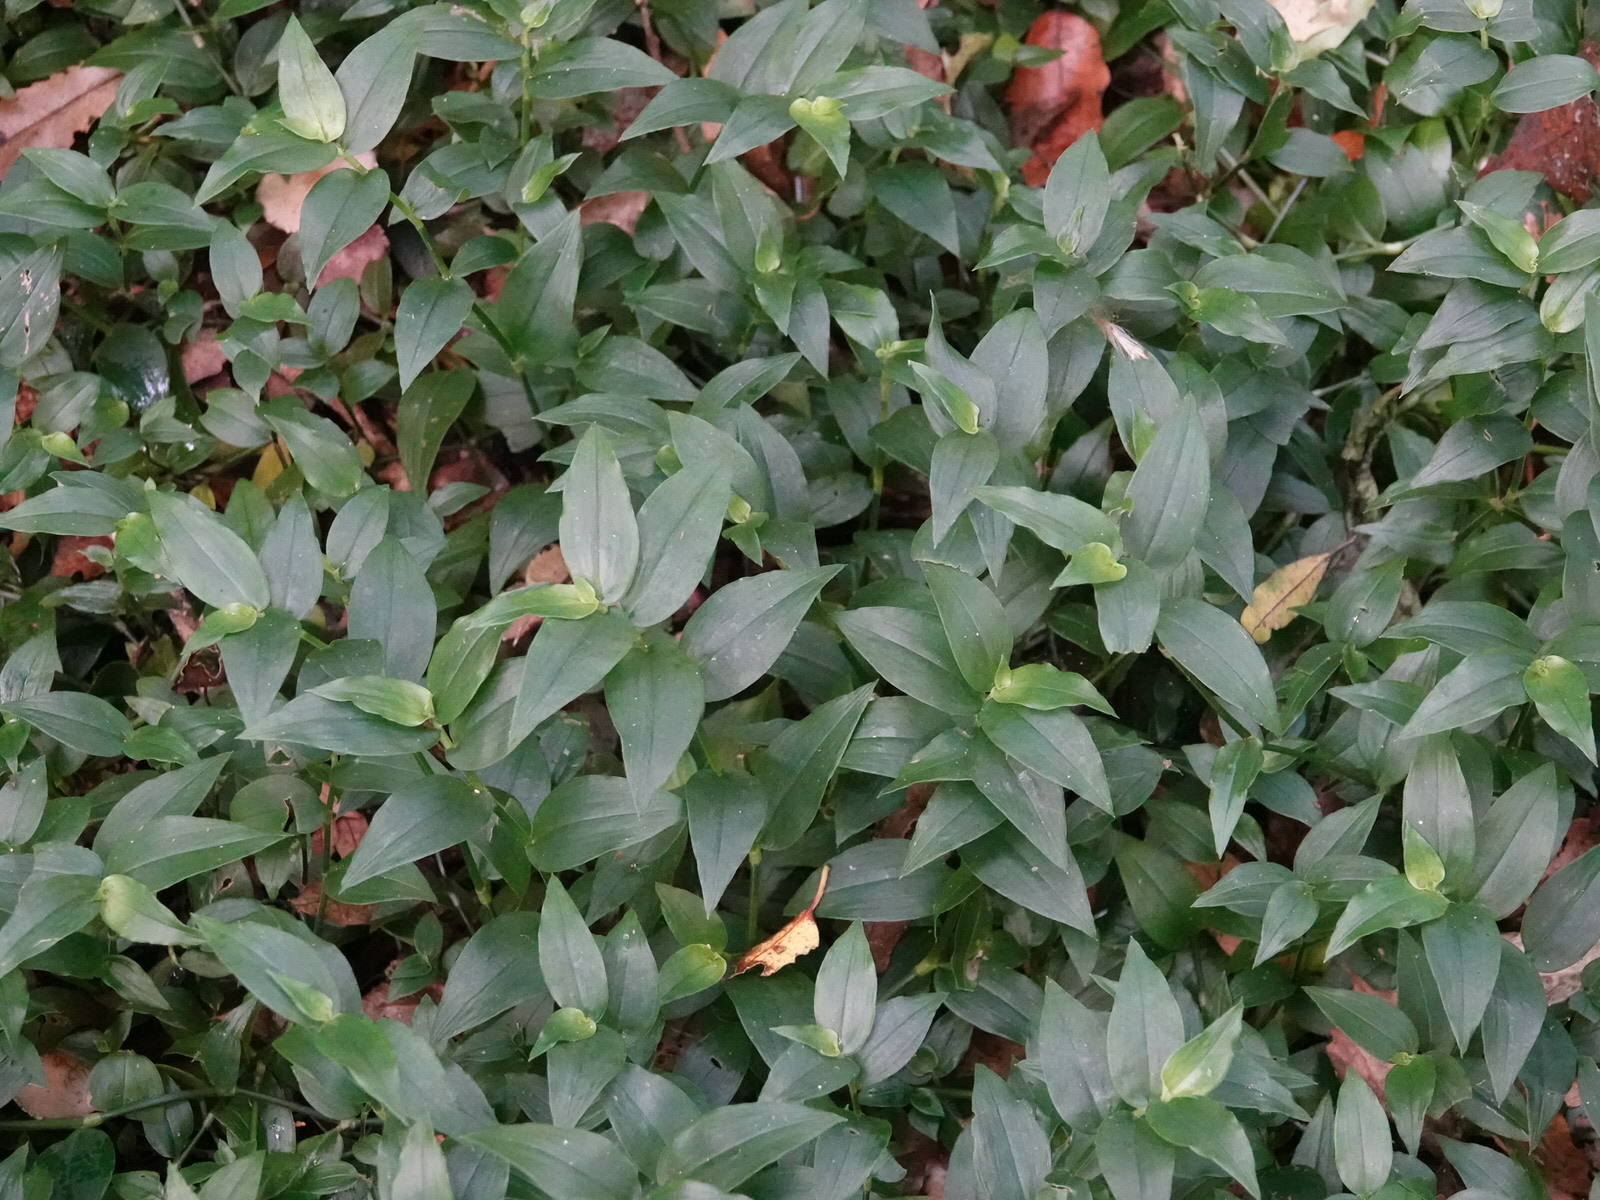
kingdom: Plantae
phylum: Tracheophyta
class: Liliopsida
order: Commelinales
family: Commelinaceae
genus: Tradescantia
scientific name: Tradescantia fluminensis
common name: Wandering-jew
